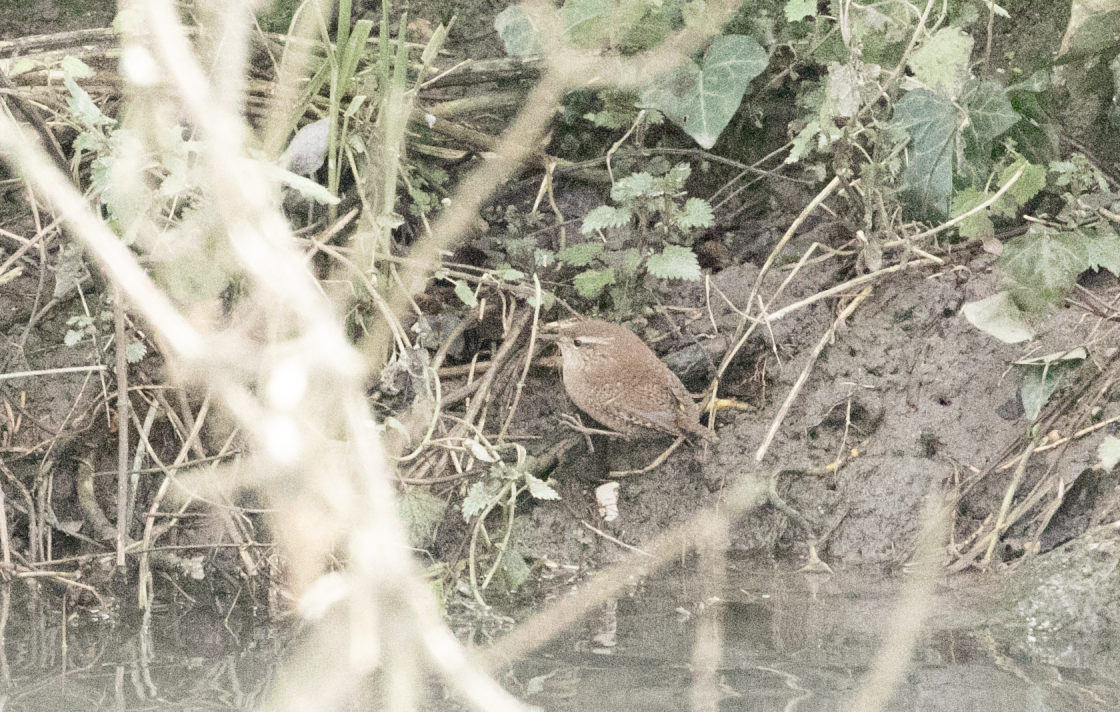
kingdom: Animalia
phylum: Chordata
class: Aves
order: Passeriformes
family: Troglodytidae
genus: Troglodytes
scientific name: Troglodytes troglodytes
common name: Eurasian wren
